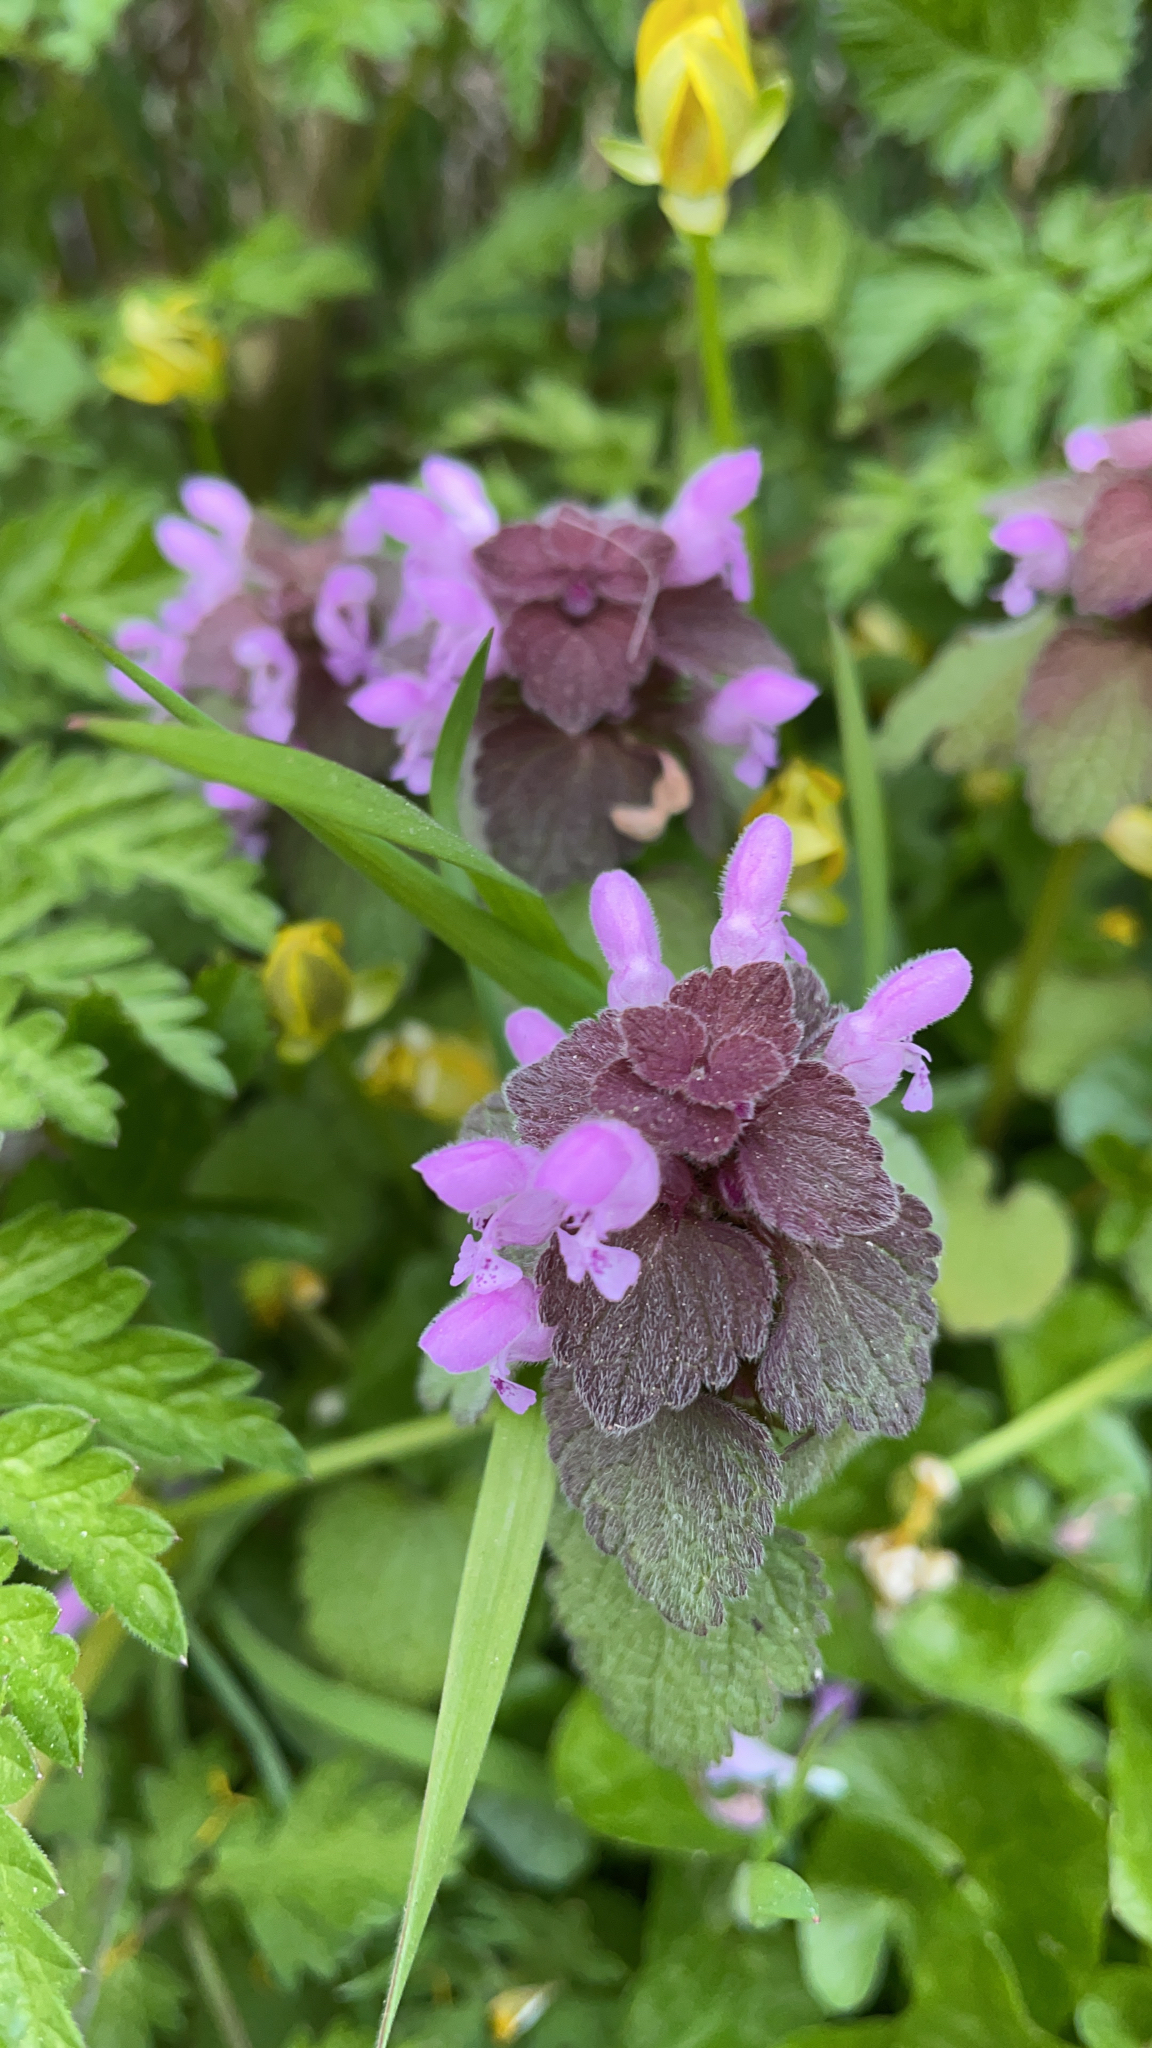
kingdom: Plantae
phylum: Tracheophyta
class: Magnoliopsida
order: Lamiales
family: Lamiaceae
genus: Lamium
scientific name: Lamium purpureum
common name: Red dead-nettle
